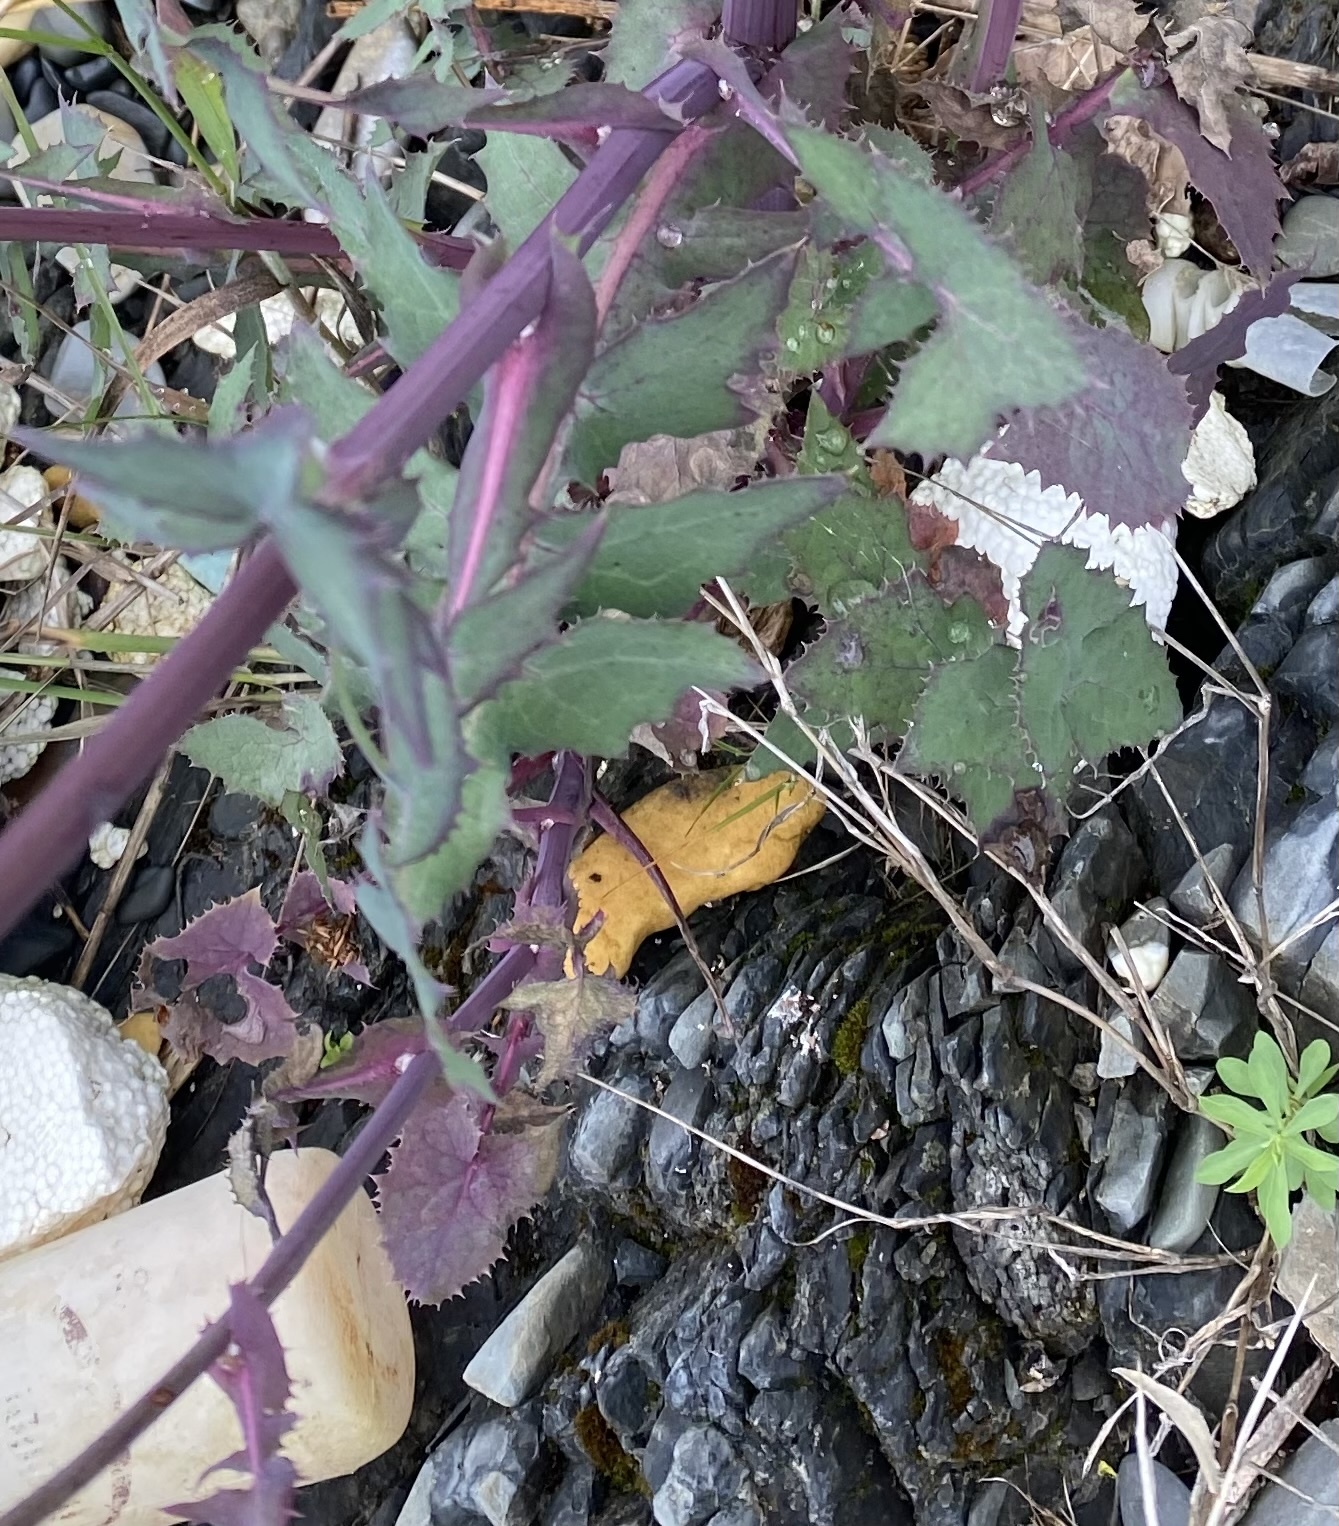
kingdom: Plantae
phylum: Tracheophyta
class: Magnoliopsida
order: Asterales
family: Asteraceae
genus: Sonchus
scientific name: Sonchus oleraceus
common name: Common sowthistle
